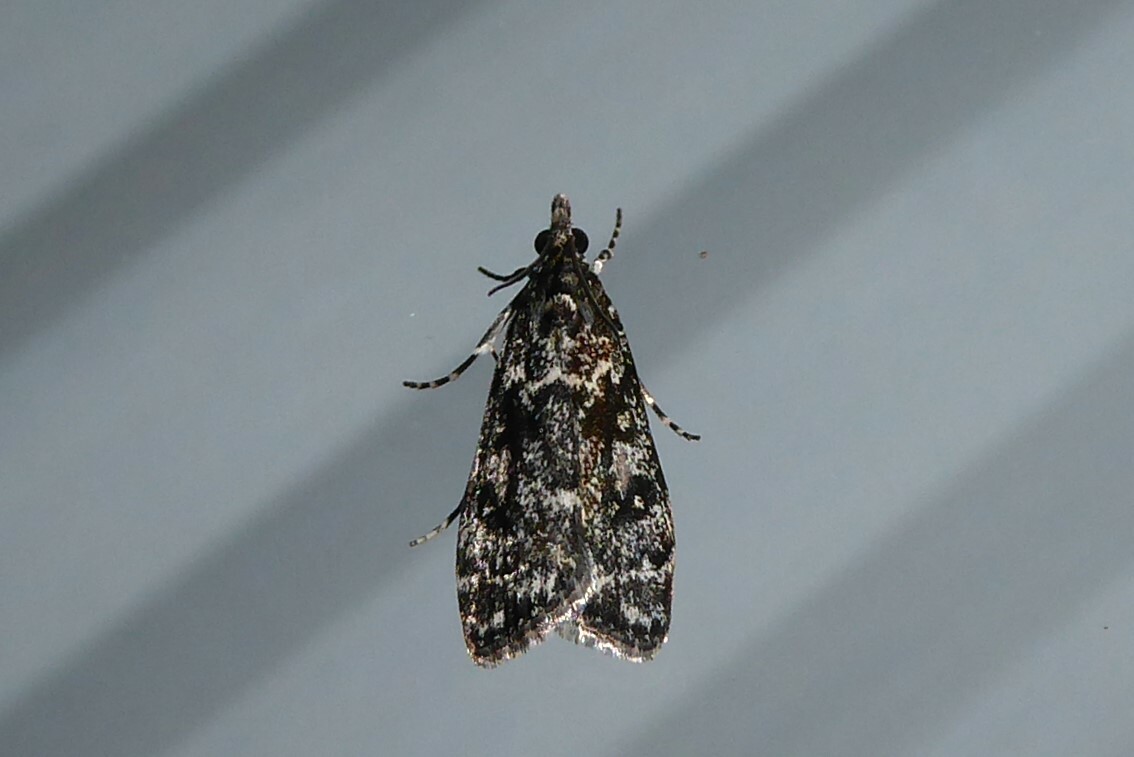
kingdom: Animalia
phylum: Arthropoda
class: Insecta
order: Lepidoptera
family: Crambidae
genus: Eudonia
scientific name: Eudonia philerga
